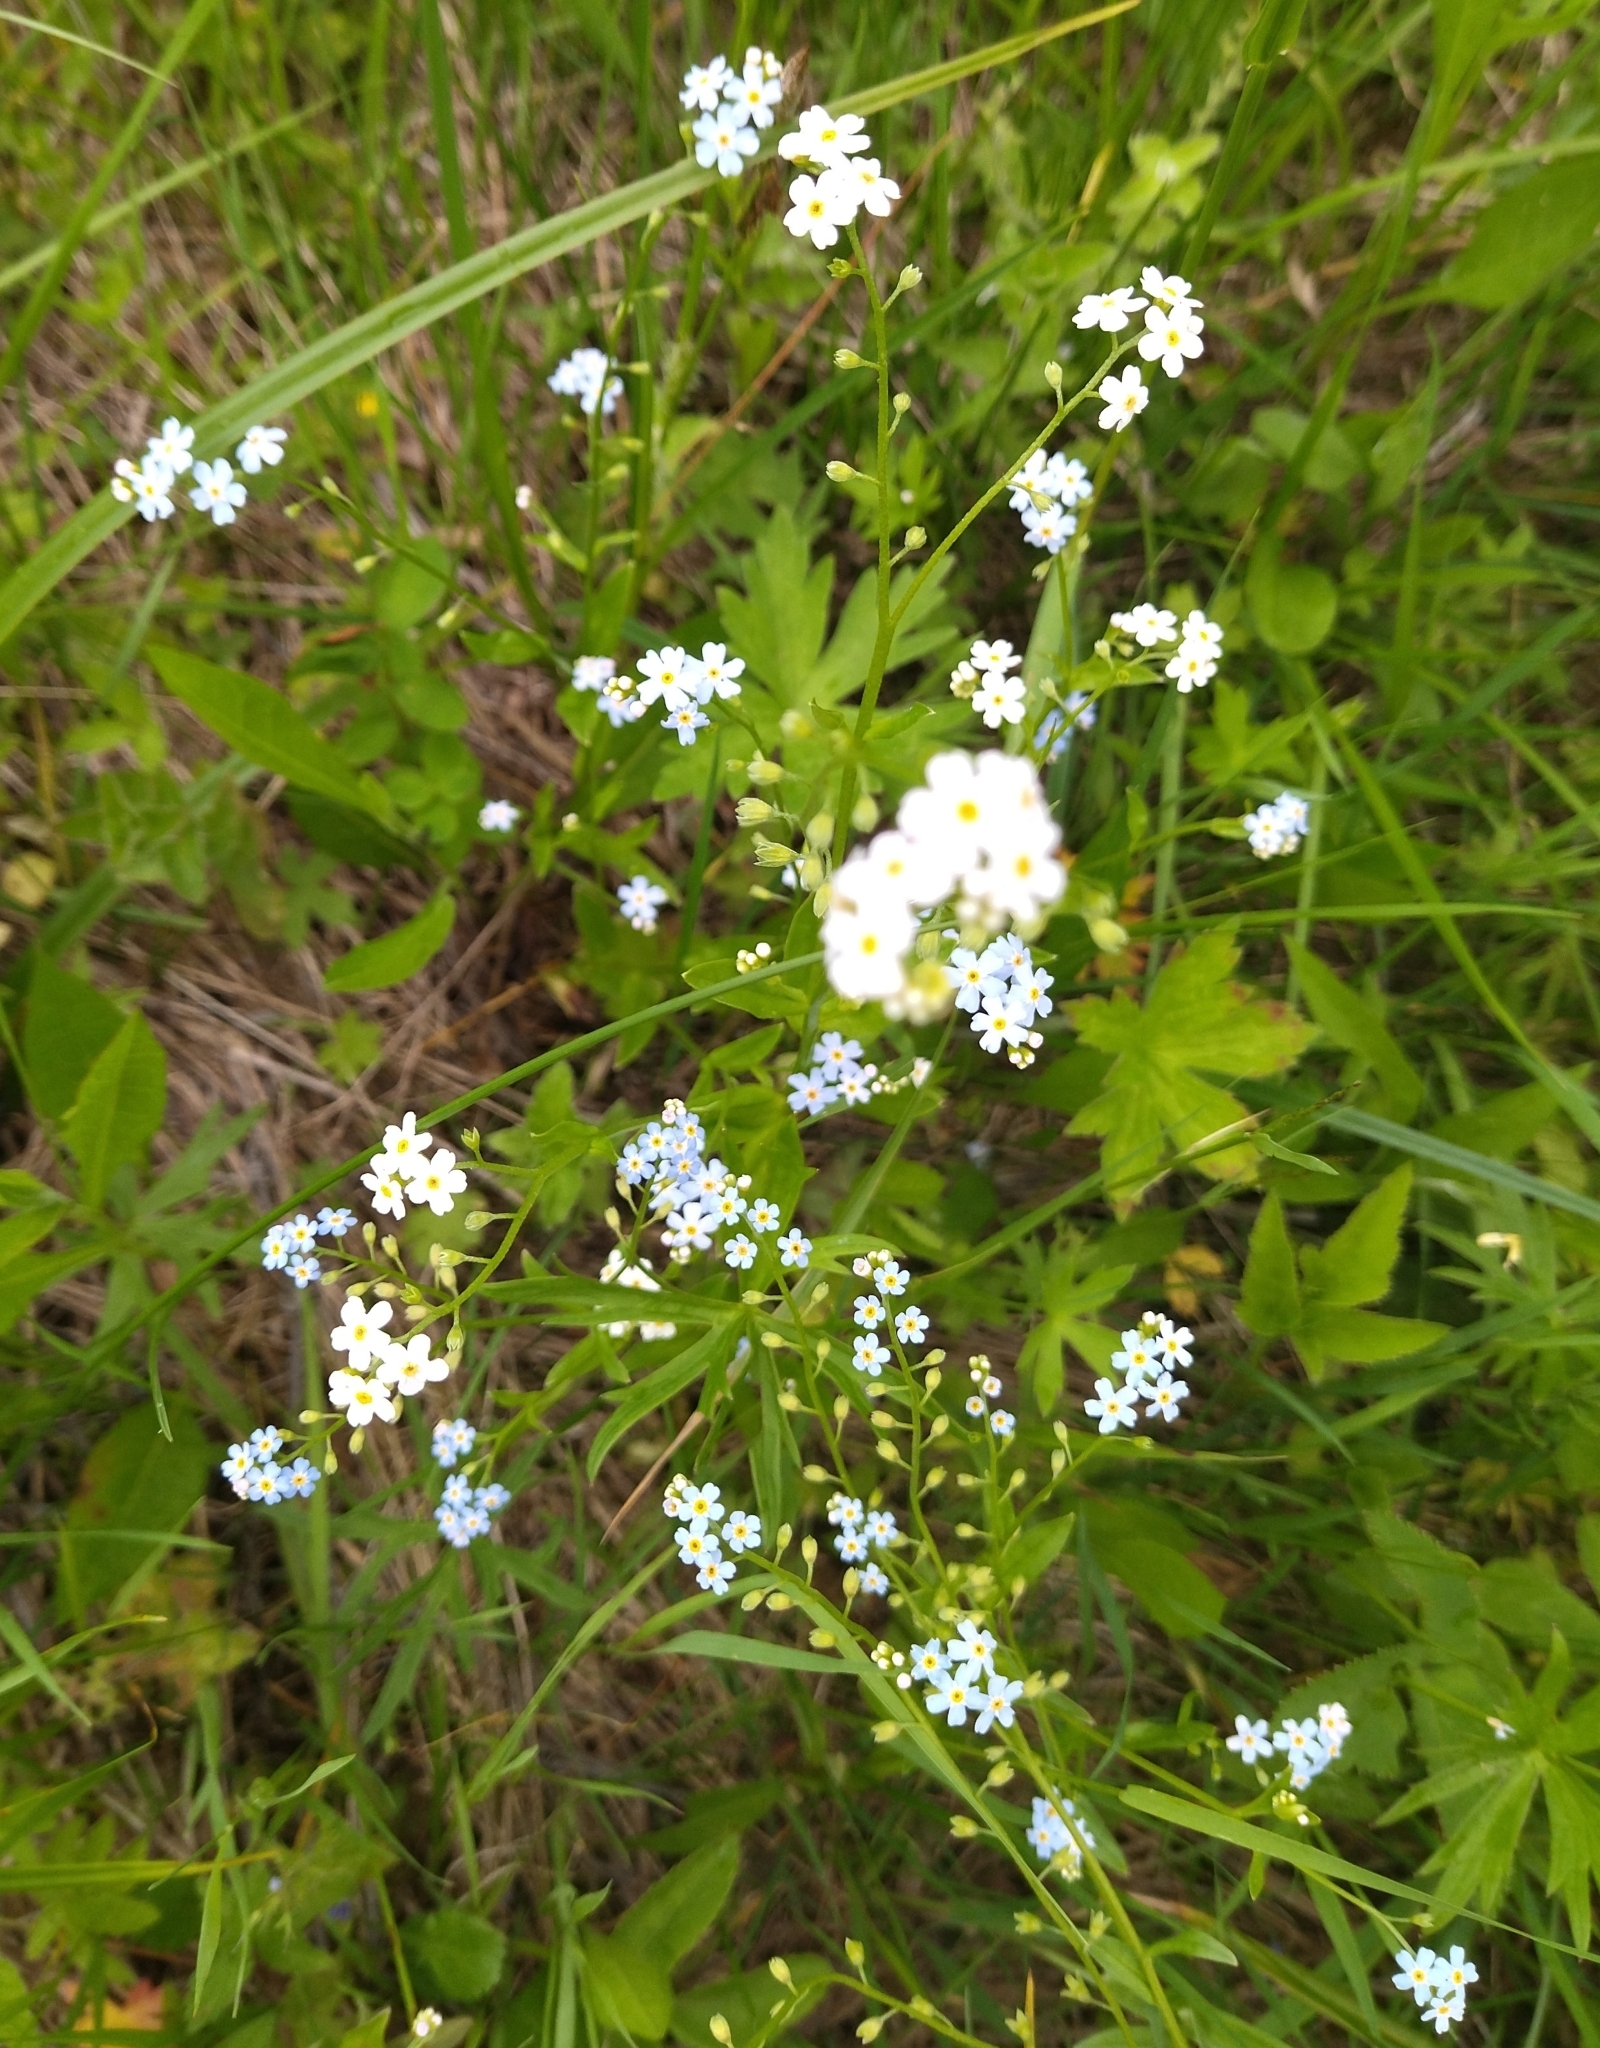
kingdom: Plantae
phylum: Tracheophyta
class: Magnoliopsida
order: Boraginales
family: Boraginaceae
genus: Myosotis
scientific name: Myosotis scorpioides
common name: Water forget-me-not
